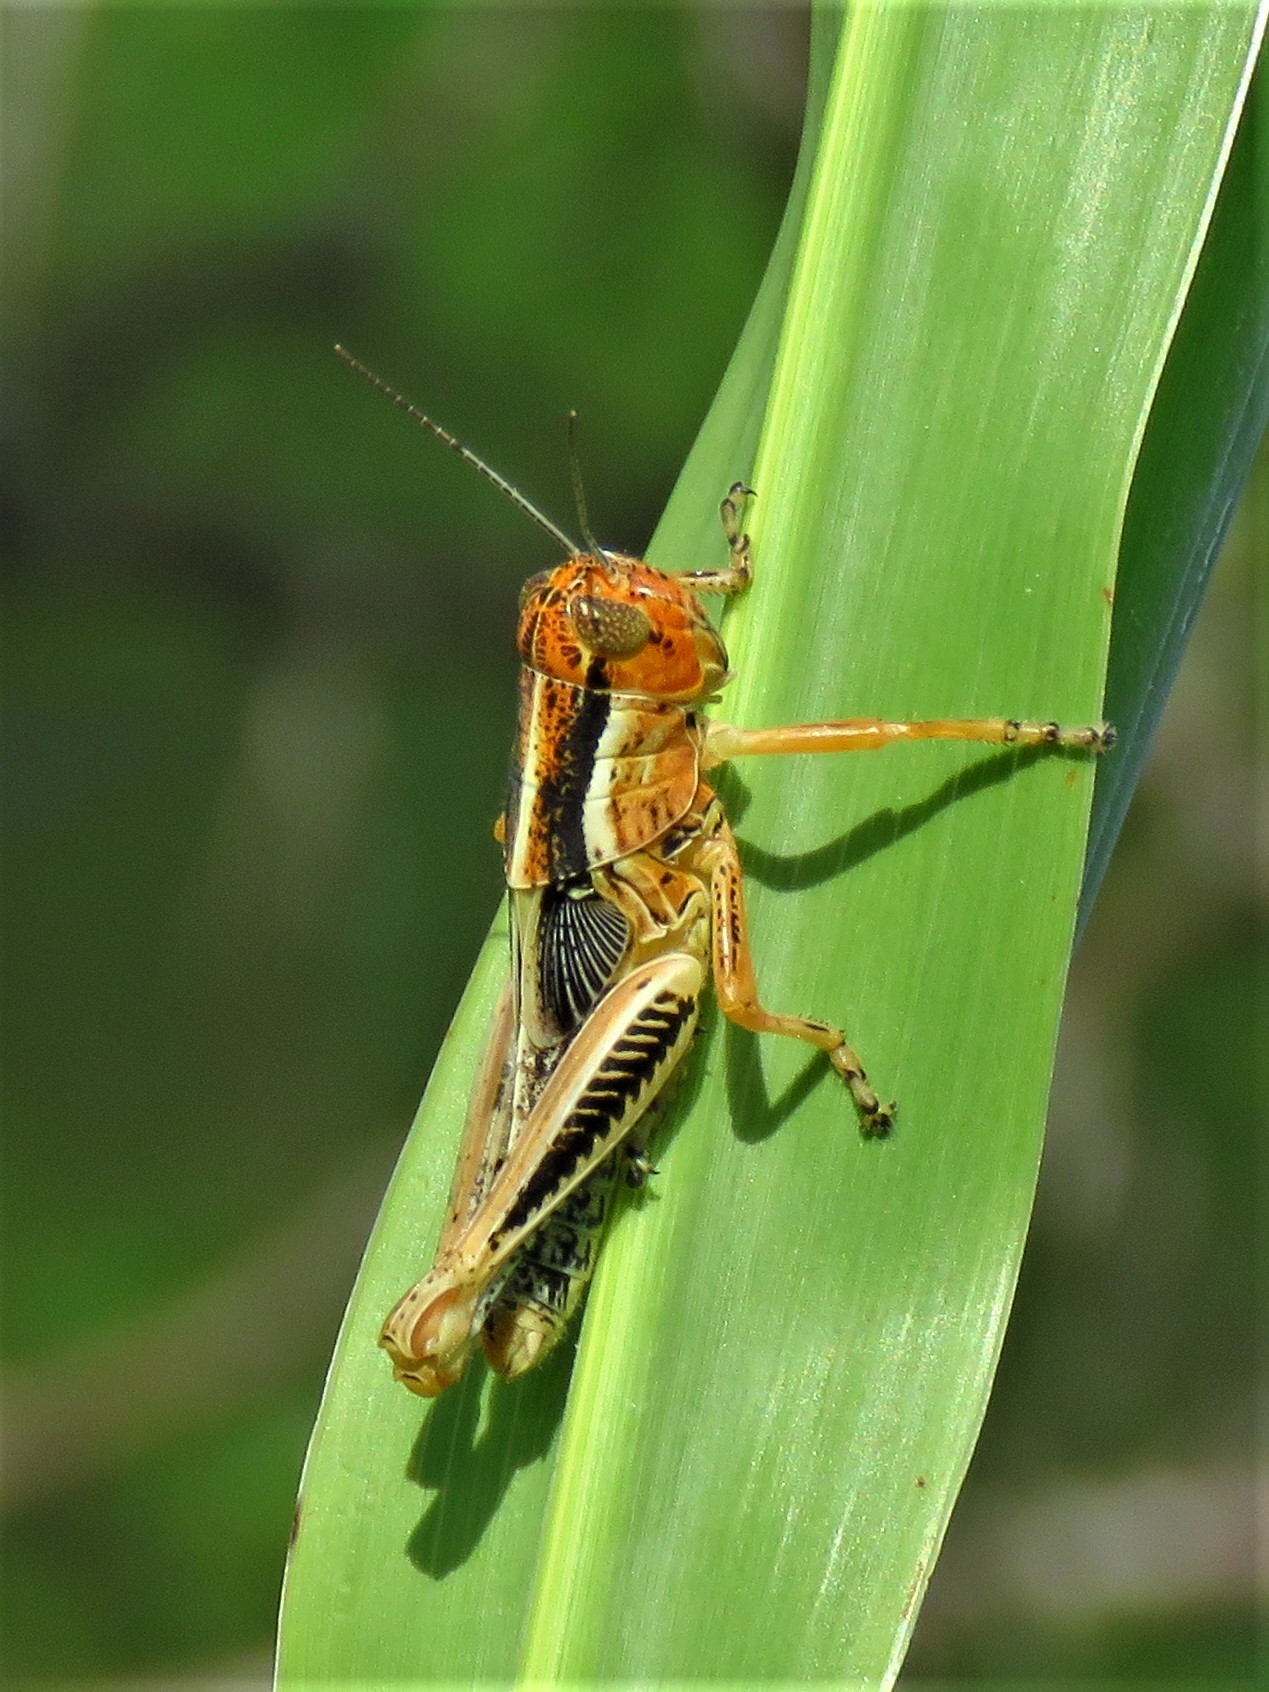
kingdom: Animalia
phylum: Arthropoda
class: Insecta
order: Orthoptera
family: Acrididae
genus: Melanoplus
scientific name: Melanoplus differentialis
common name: Differential grasshopper
